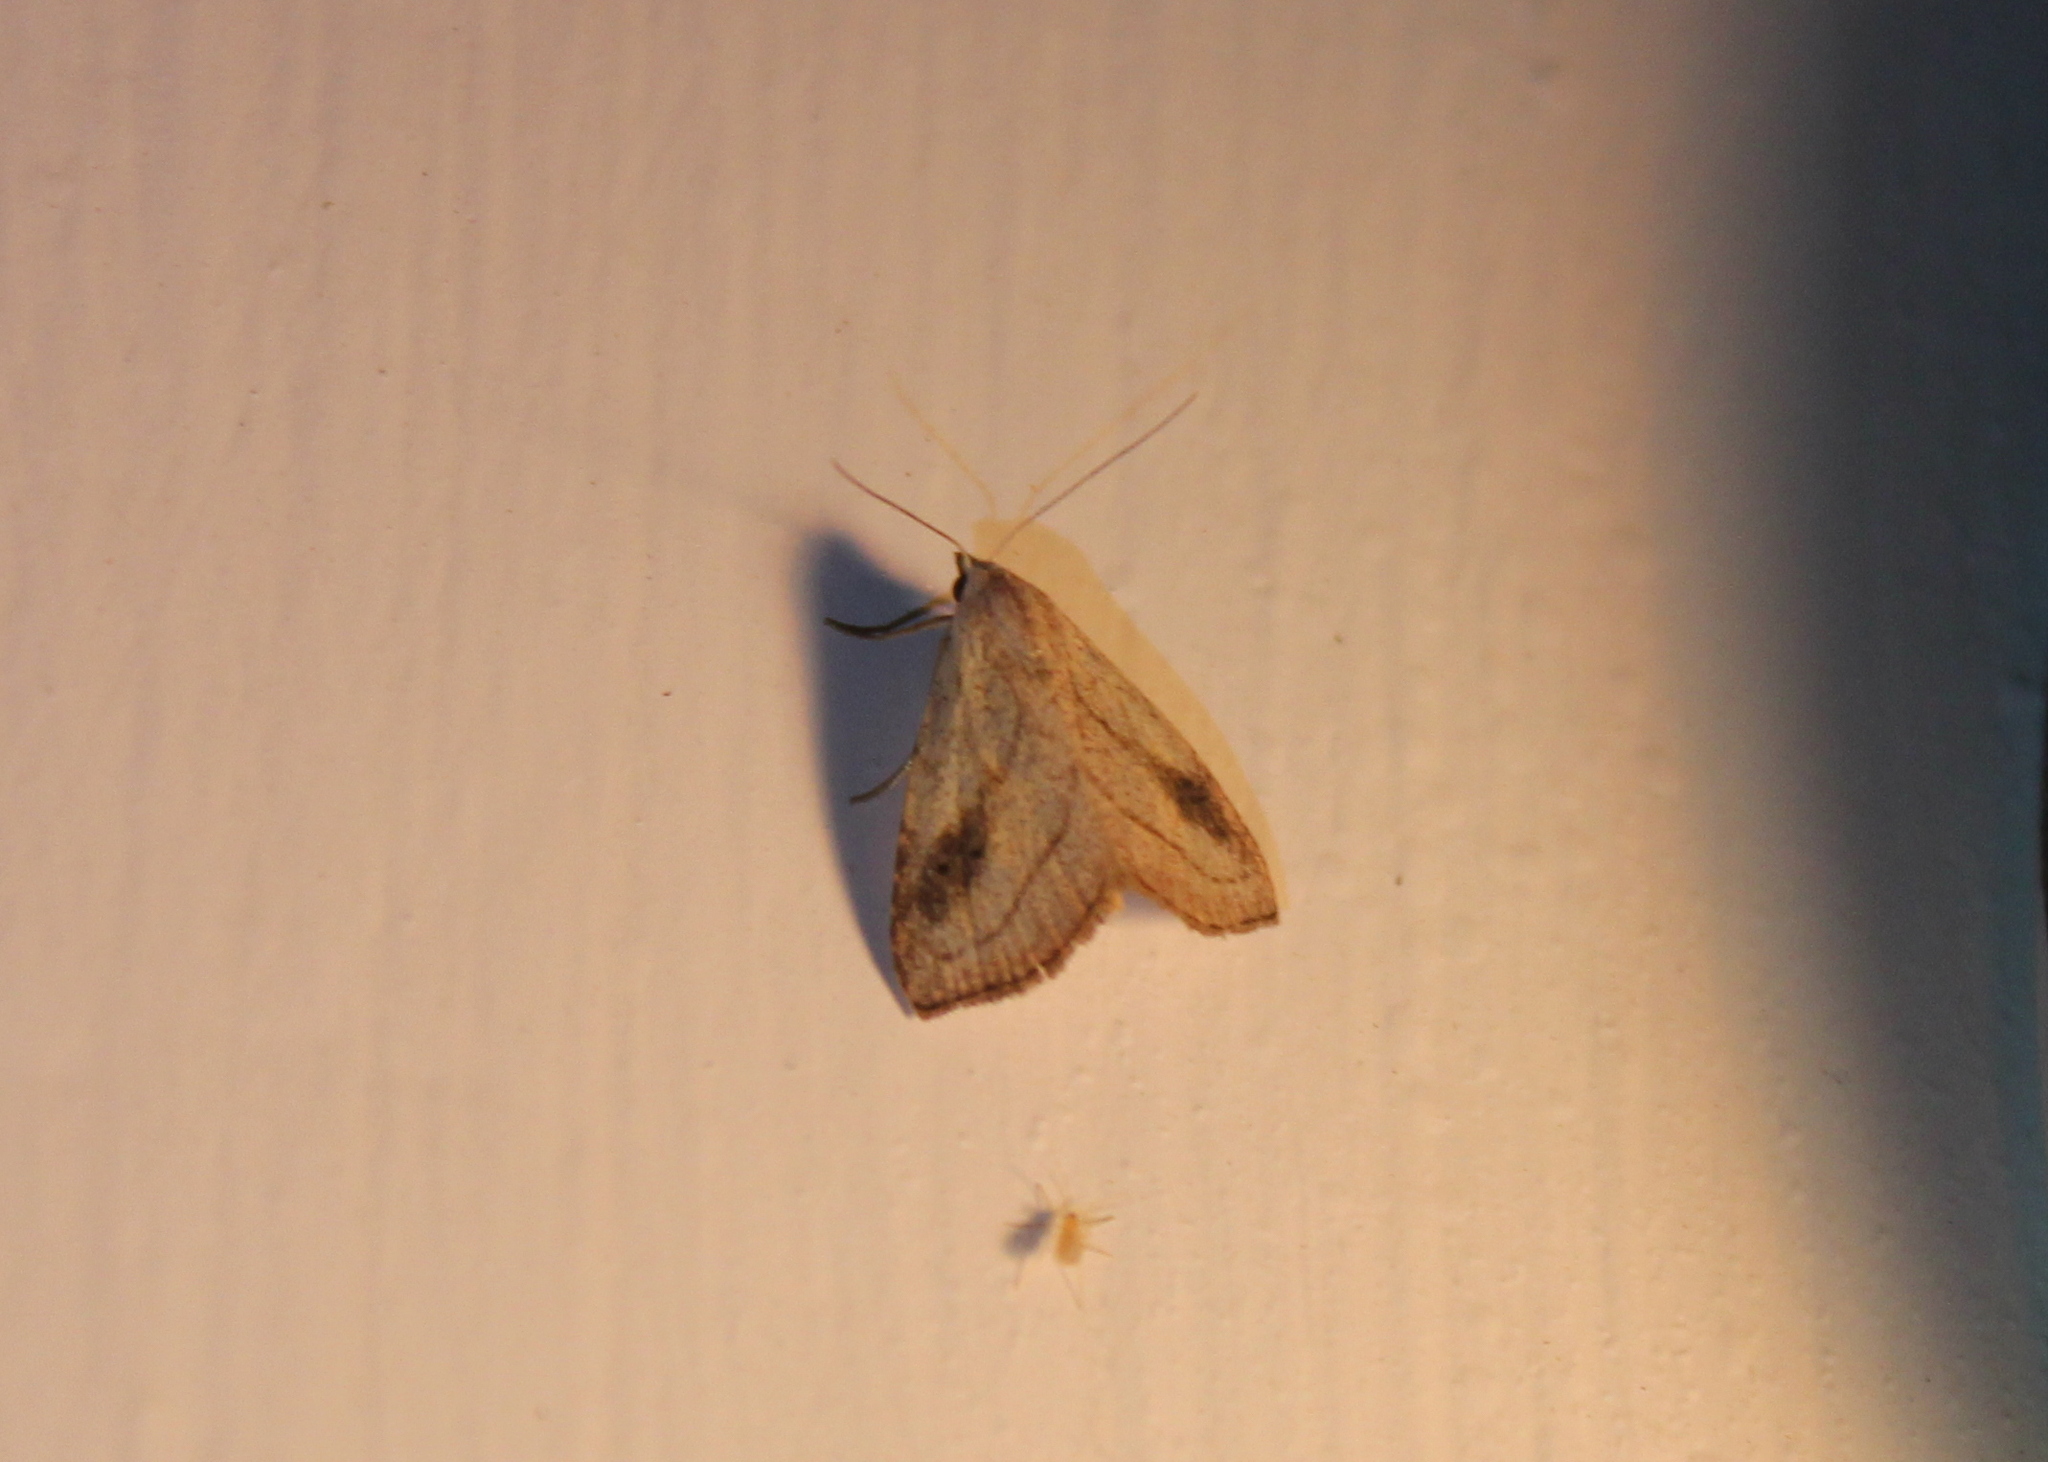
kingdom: Animalia
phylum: Arthropoda
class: Insecta
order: Lepidoptera
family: Erebidae
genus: Rivula
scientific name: Rivula propinqualis
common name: Spotted grass moth
